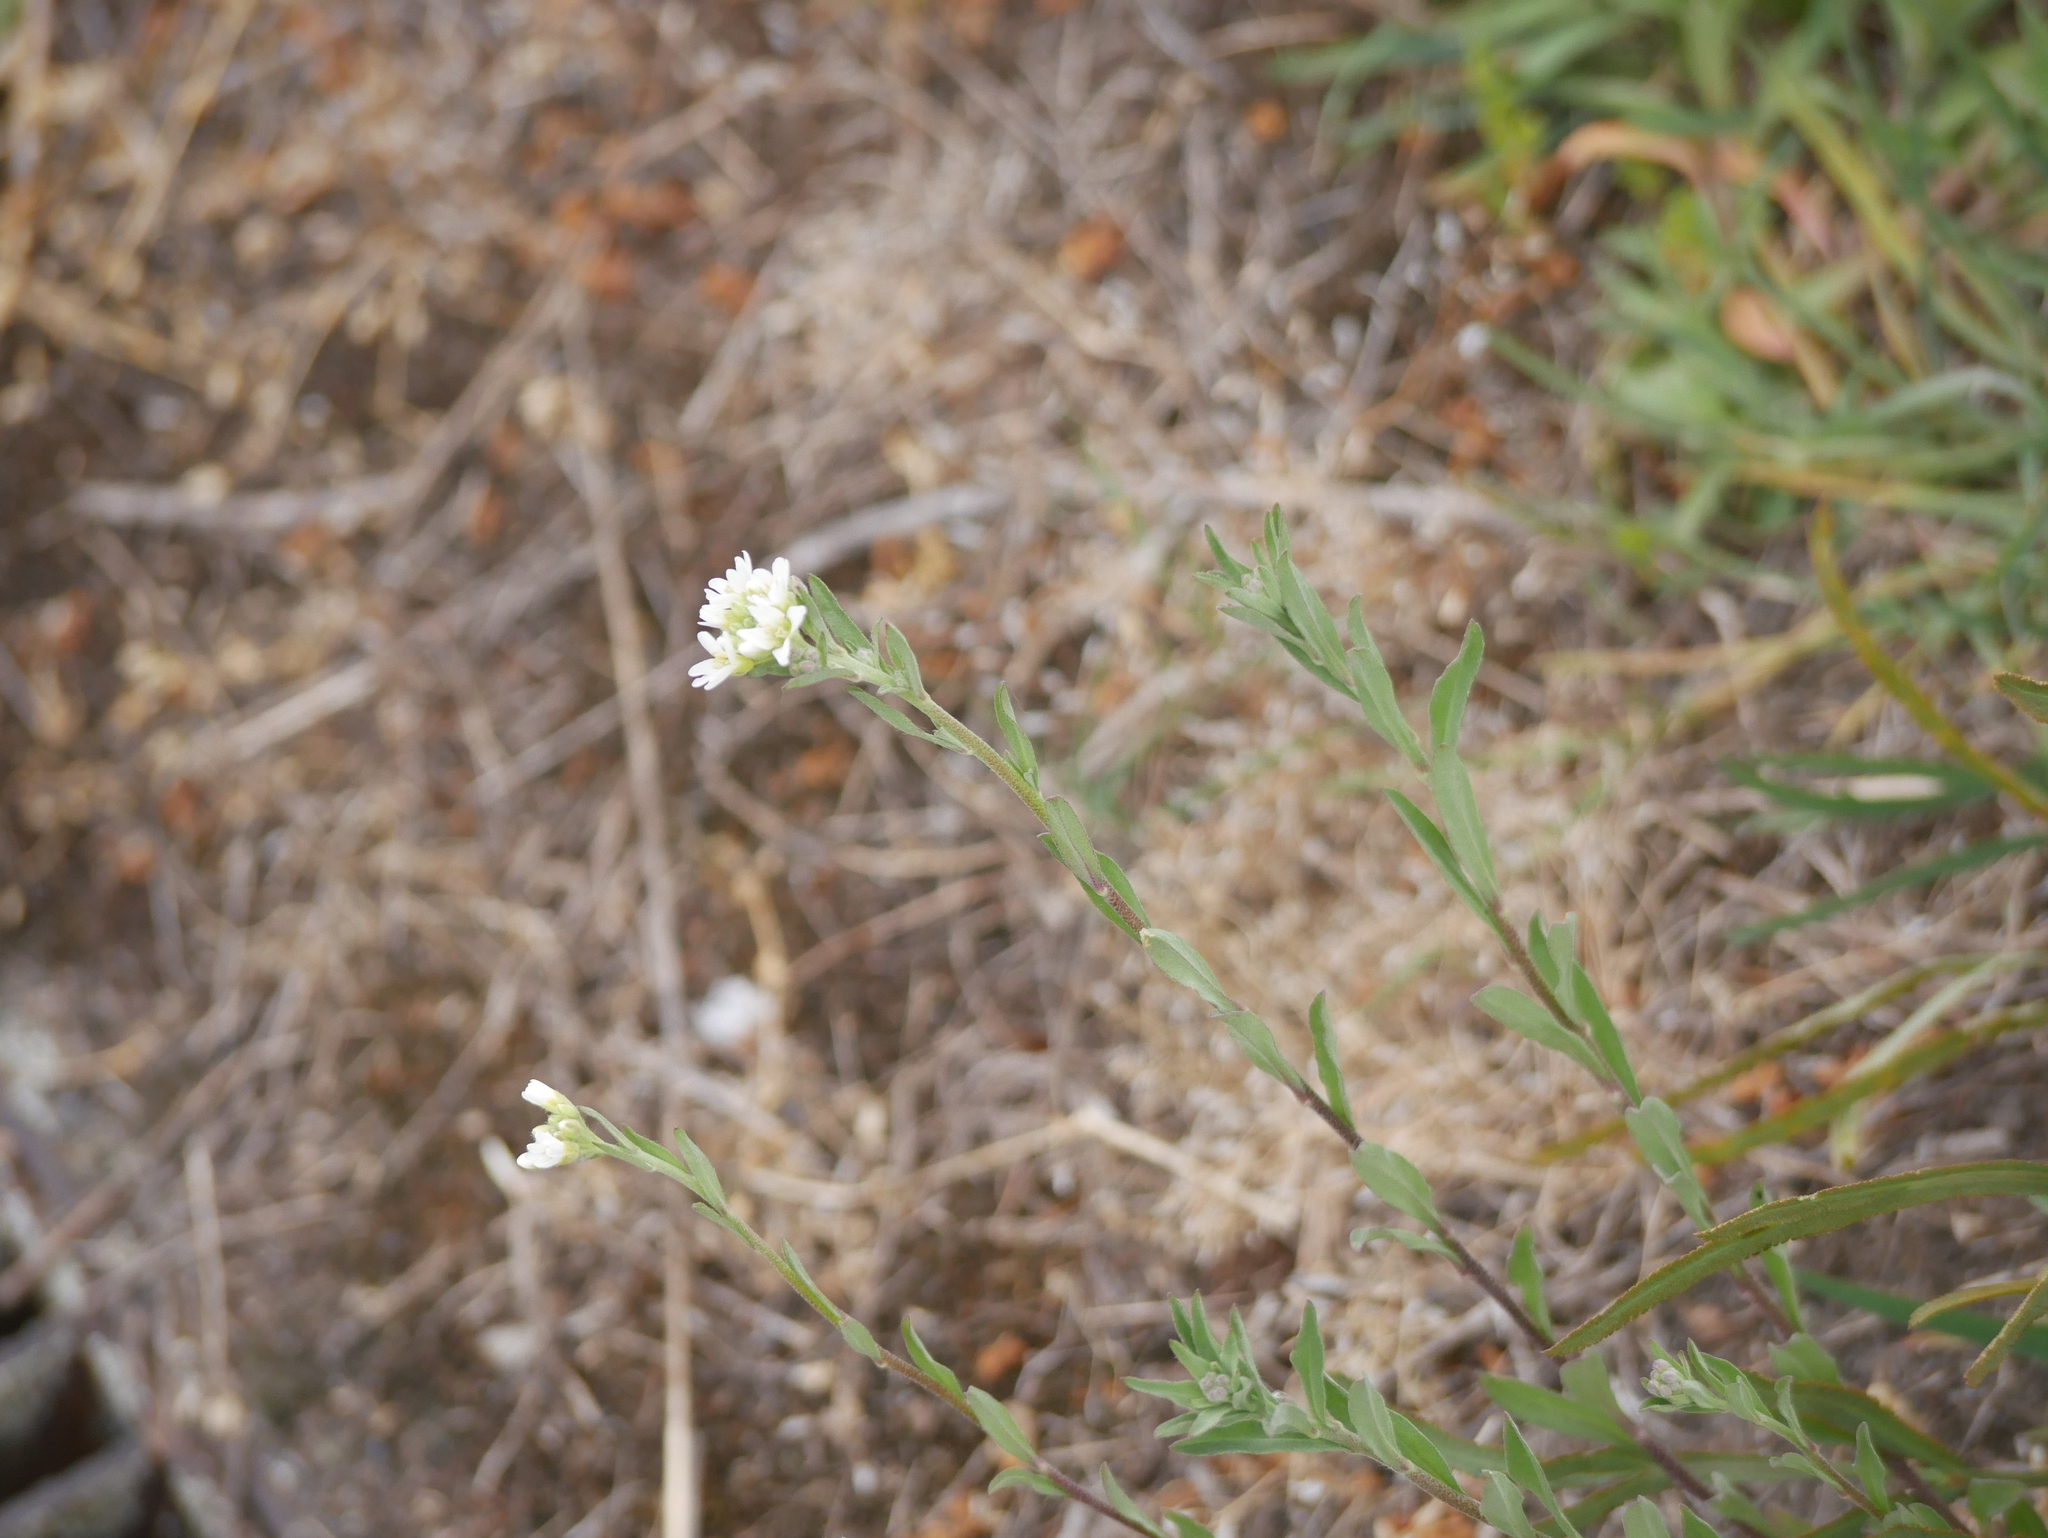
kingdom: Plantae
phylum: Tracheophyta
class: Magnoliopsida
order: Brassicales
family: Brassicaceae
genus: Berteroa
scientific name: Berteroa incana
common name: Hoary alison
